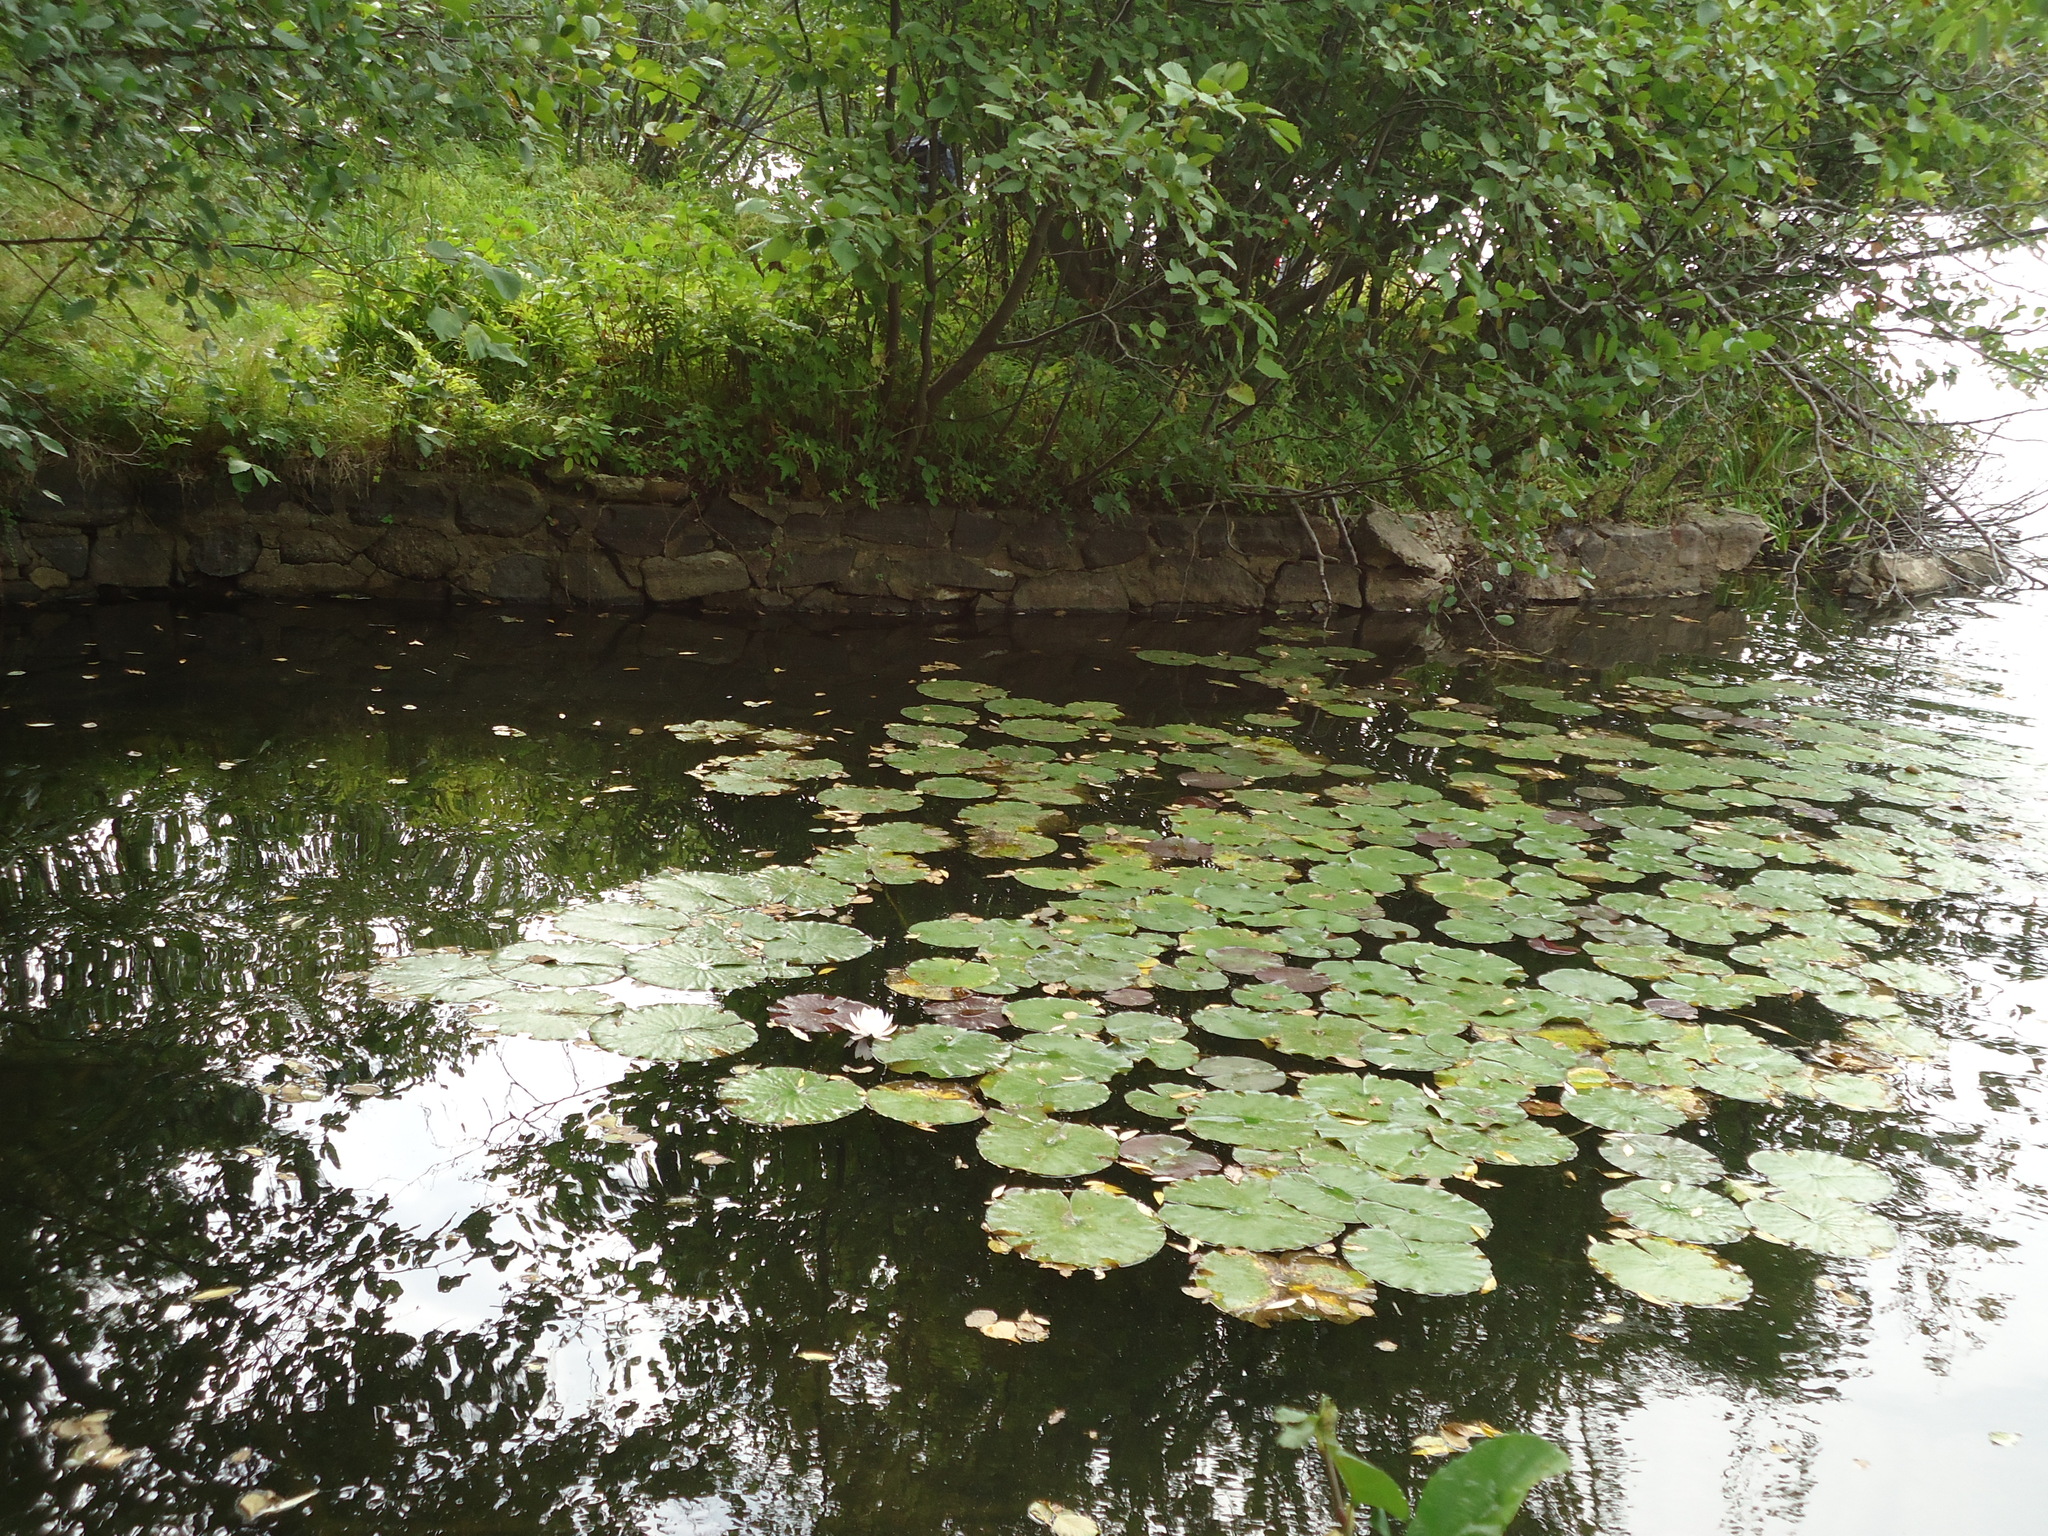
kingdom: Plantae
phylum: Tracheophyta
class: Magnoliopsida
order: Nymphaeales
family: Nymphaeaceae
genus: Nymphaea
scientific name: Nymphaea odorata
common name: Fragrant water-lily
